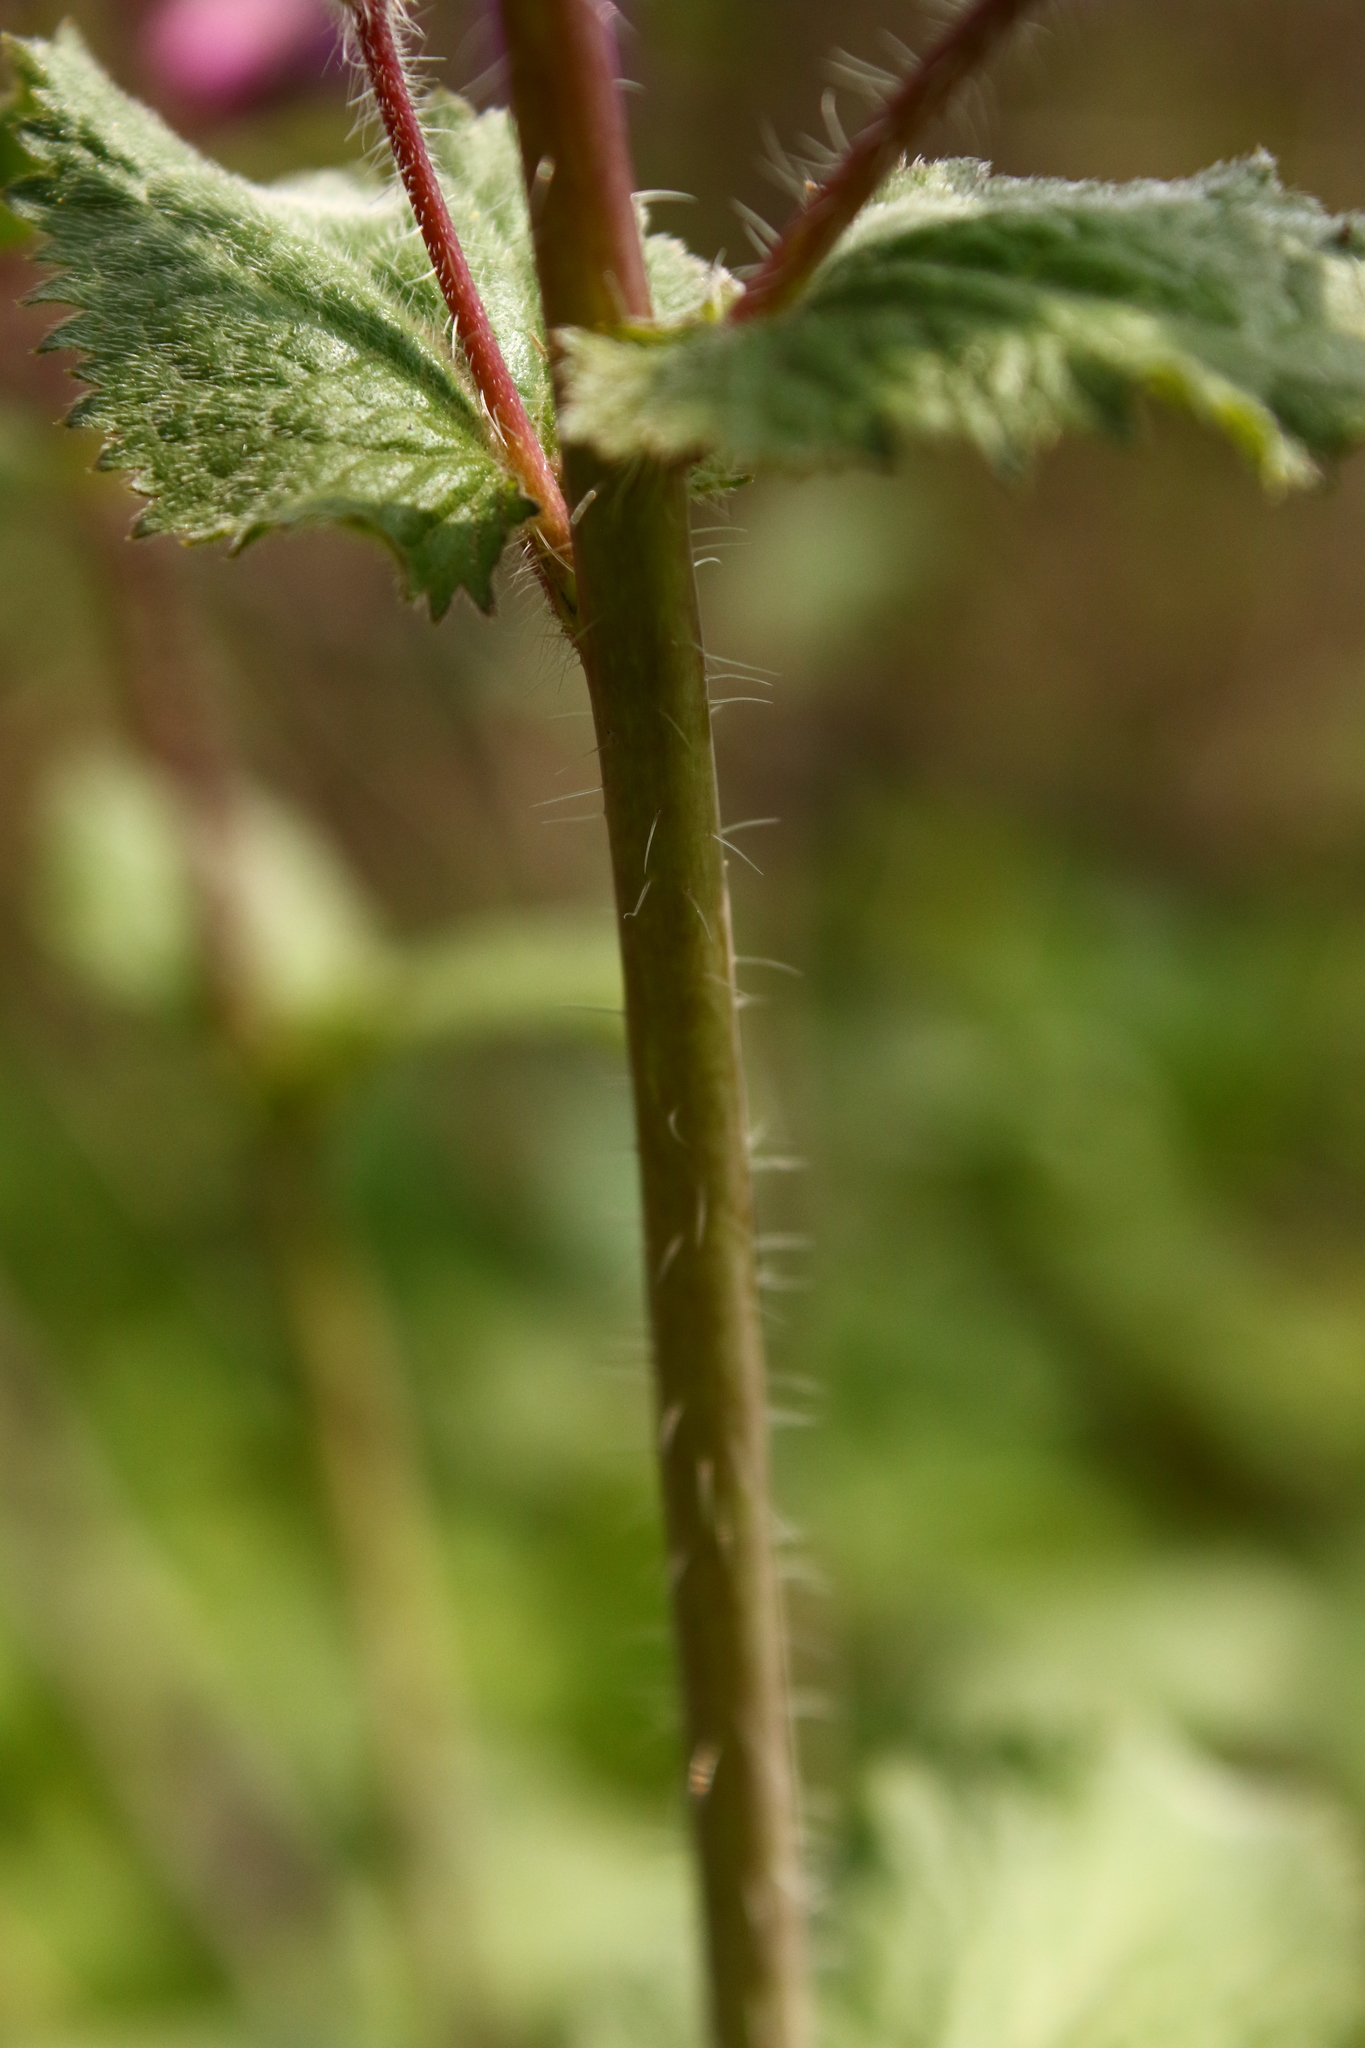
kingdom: Plantae
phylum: Tracheophyta
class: Magnoliopsida
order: Brassicales
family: Brassicaceae
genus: Lunaria
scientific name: Lunaria annua
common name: Honesty
